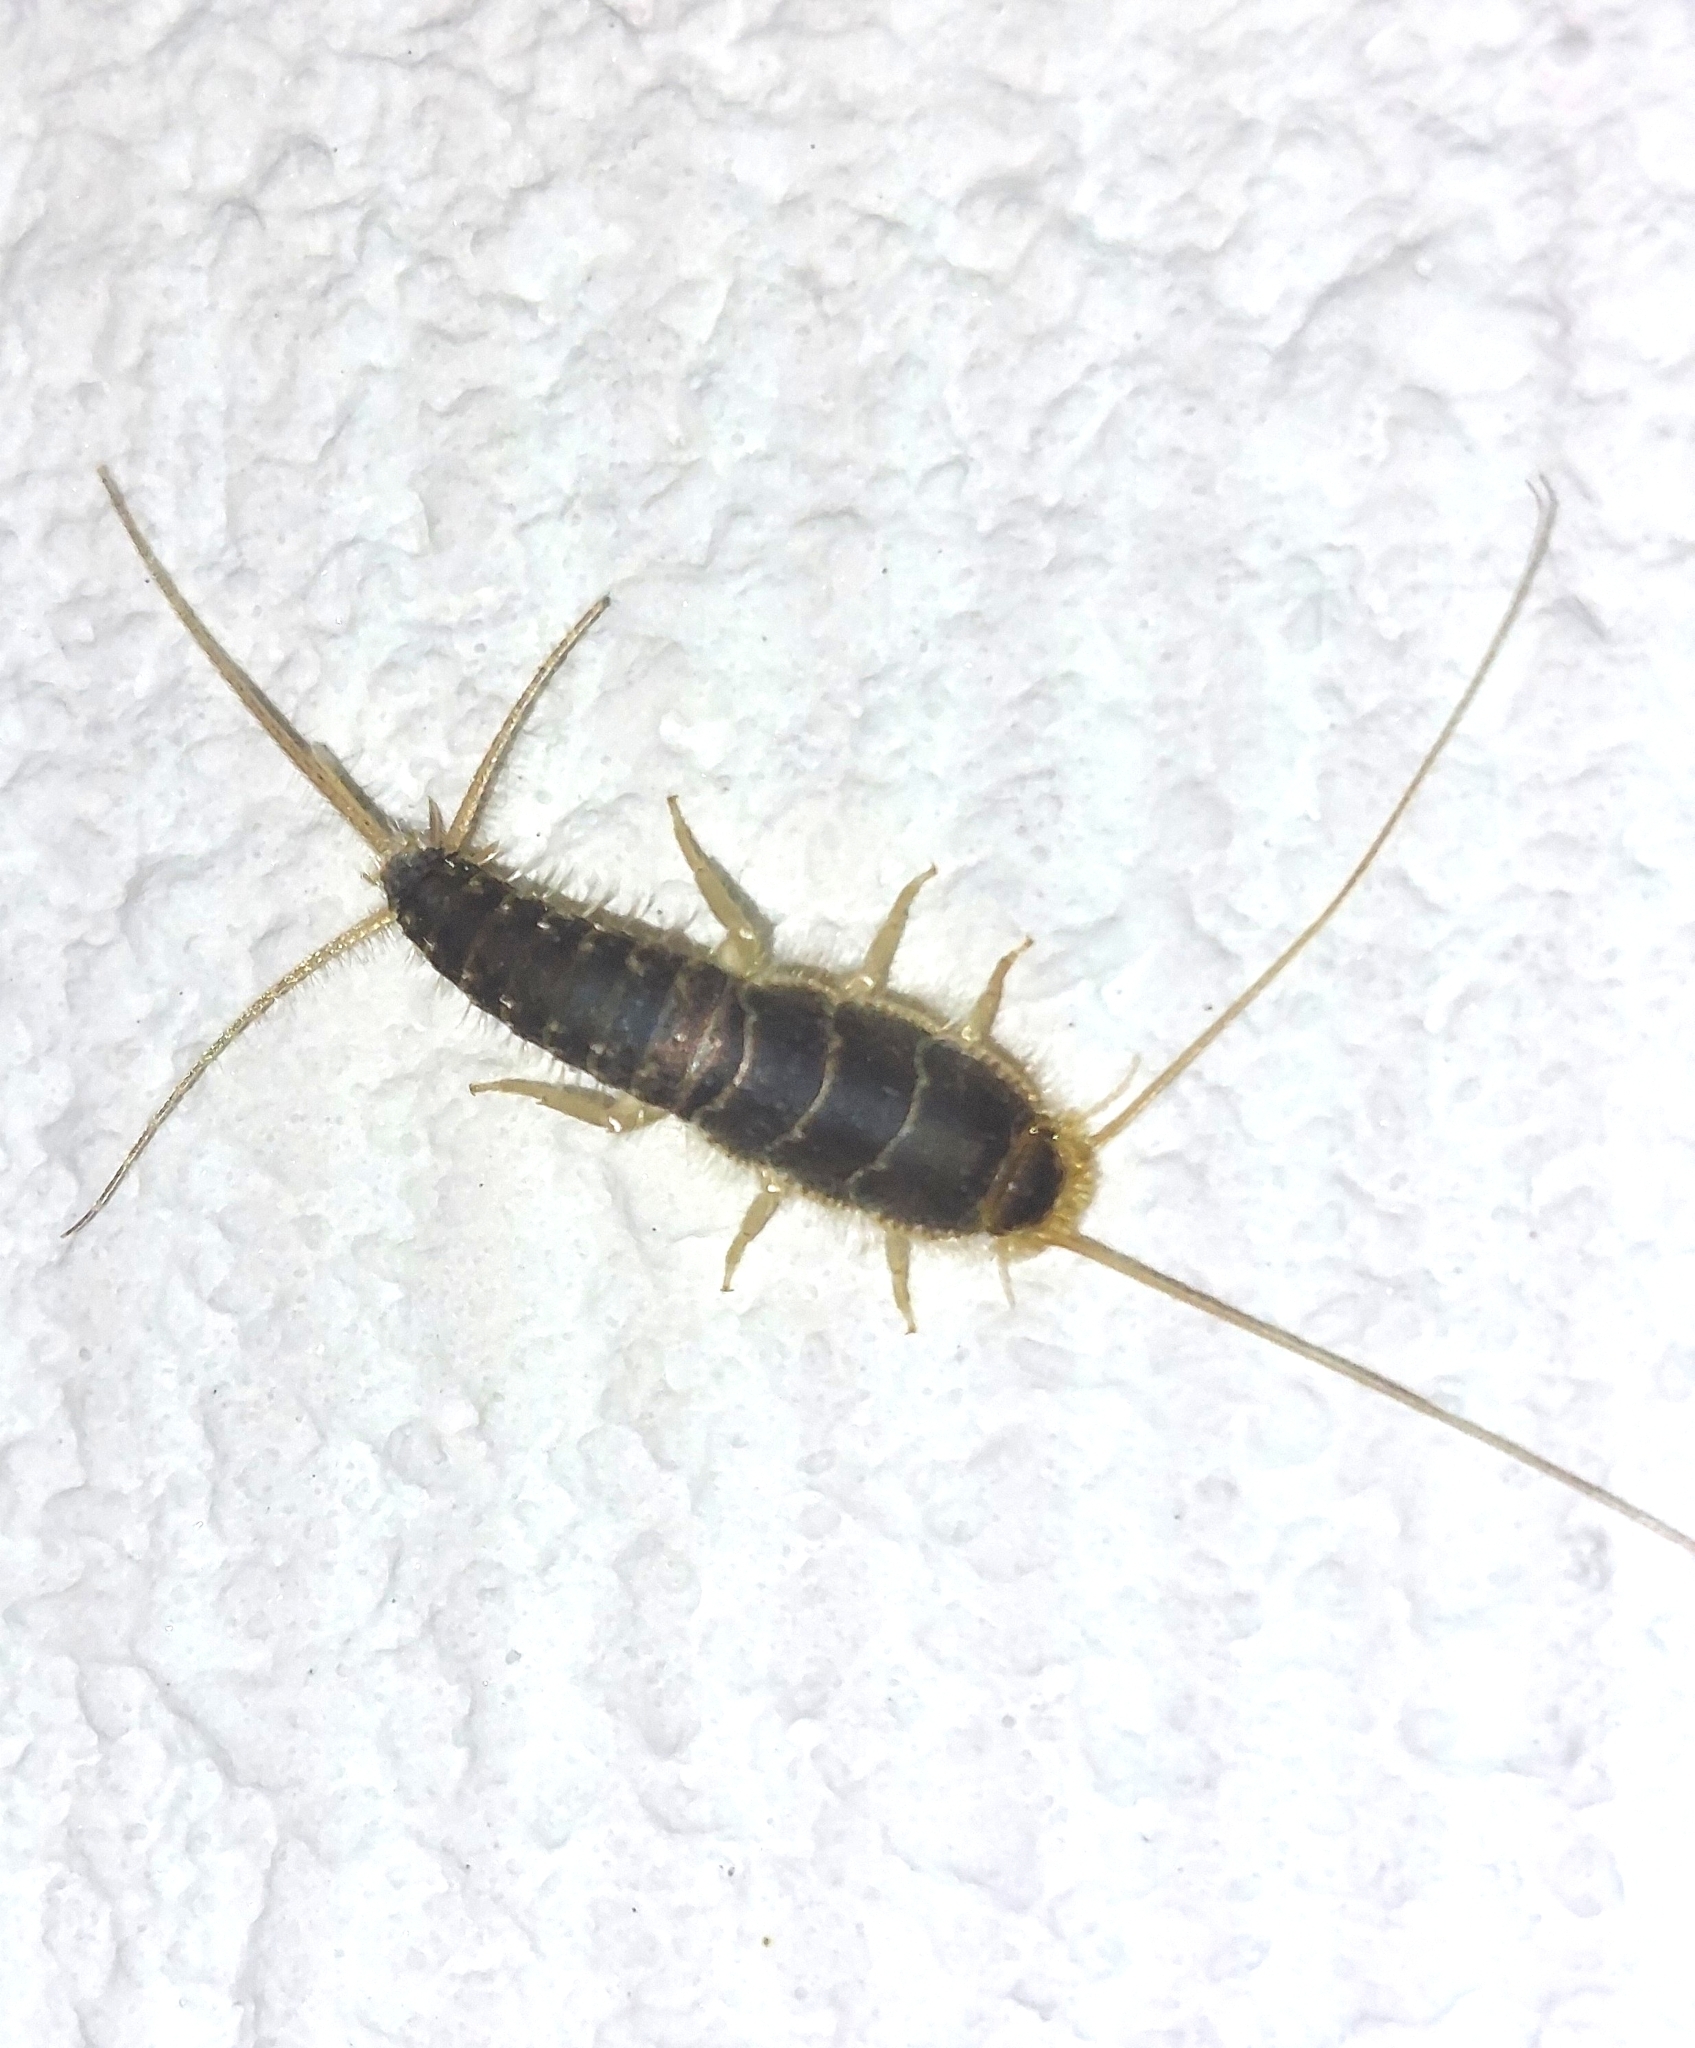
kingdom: Animalia
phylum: Arthropoda
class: Insecta
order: Zygentoma
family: Lepismatidae
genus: Ctenolepisma
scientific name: Ctenolepisma longicaudatum
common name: Silverfish
